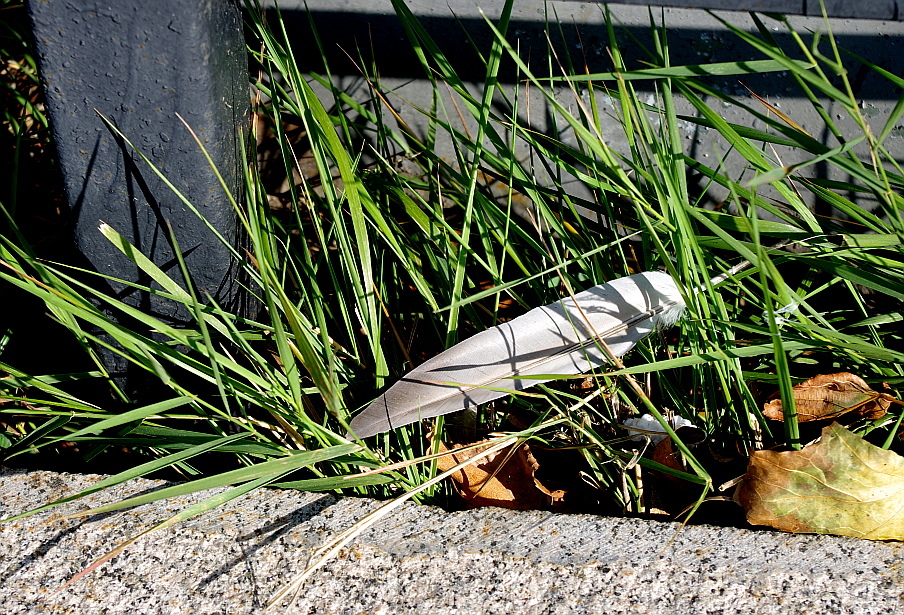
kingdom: Animalia
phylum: Chordata
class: Aves
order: Columbiformes
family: Columbidae
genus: Columba
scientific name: Columba livia
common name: Rock pigeon
